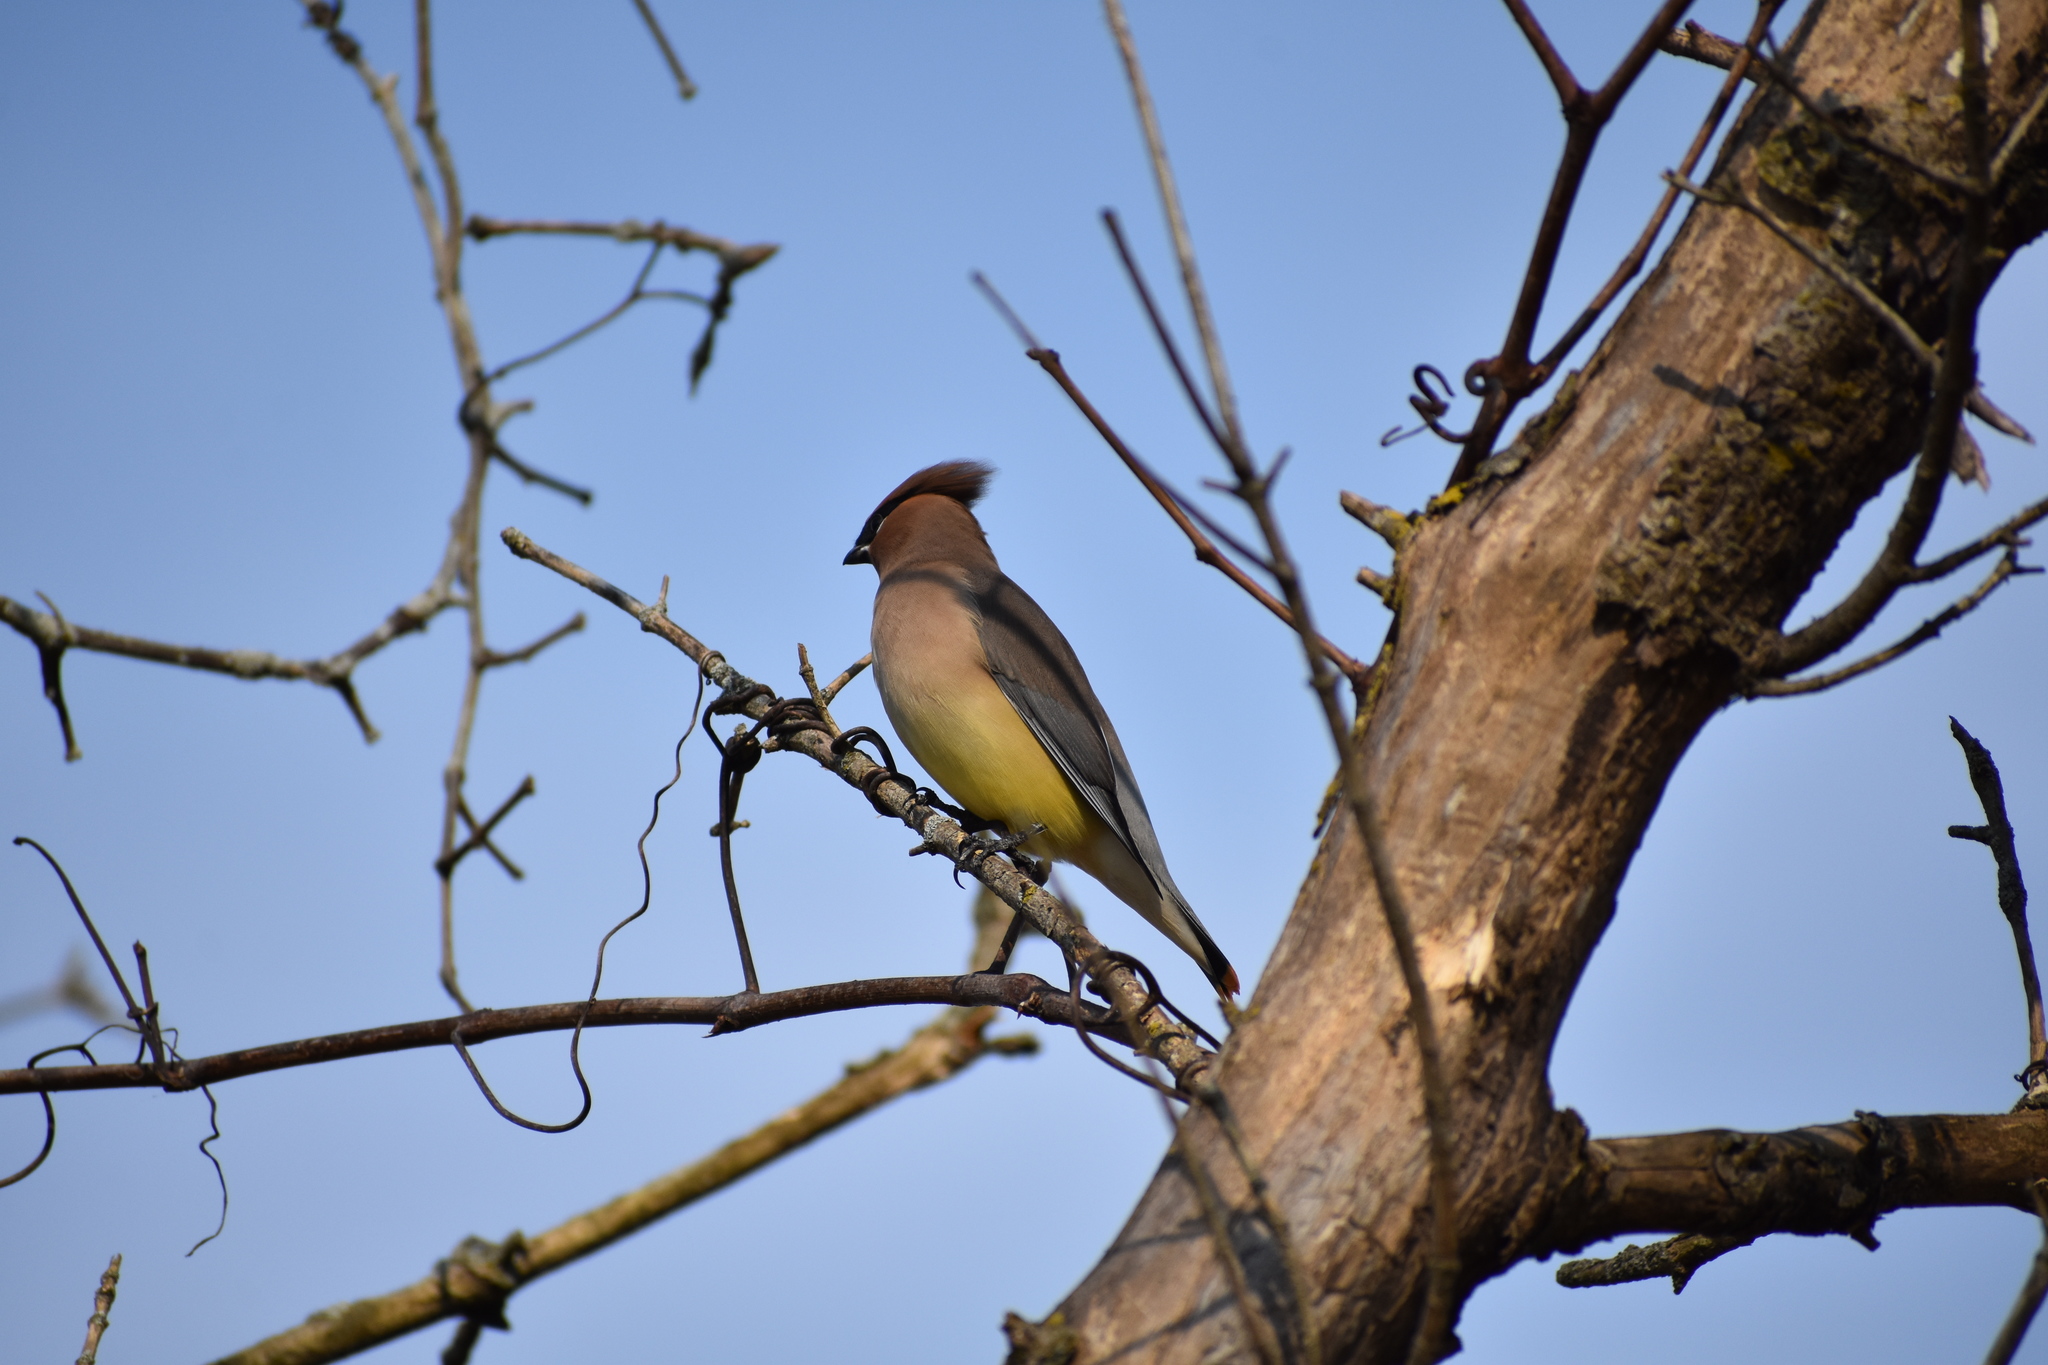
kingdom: Animalia
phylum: Chordata
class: Aves
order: Passeriformes
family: Bombycillidae
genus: Bombycilla
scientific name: Bombycilla cedrorum
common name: Cedar waxwing
